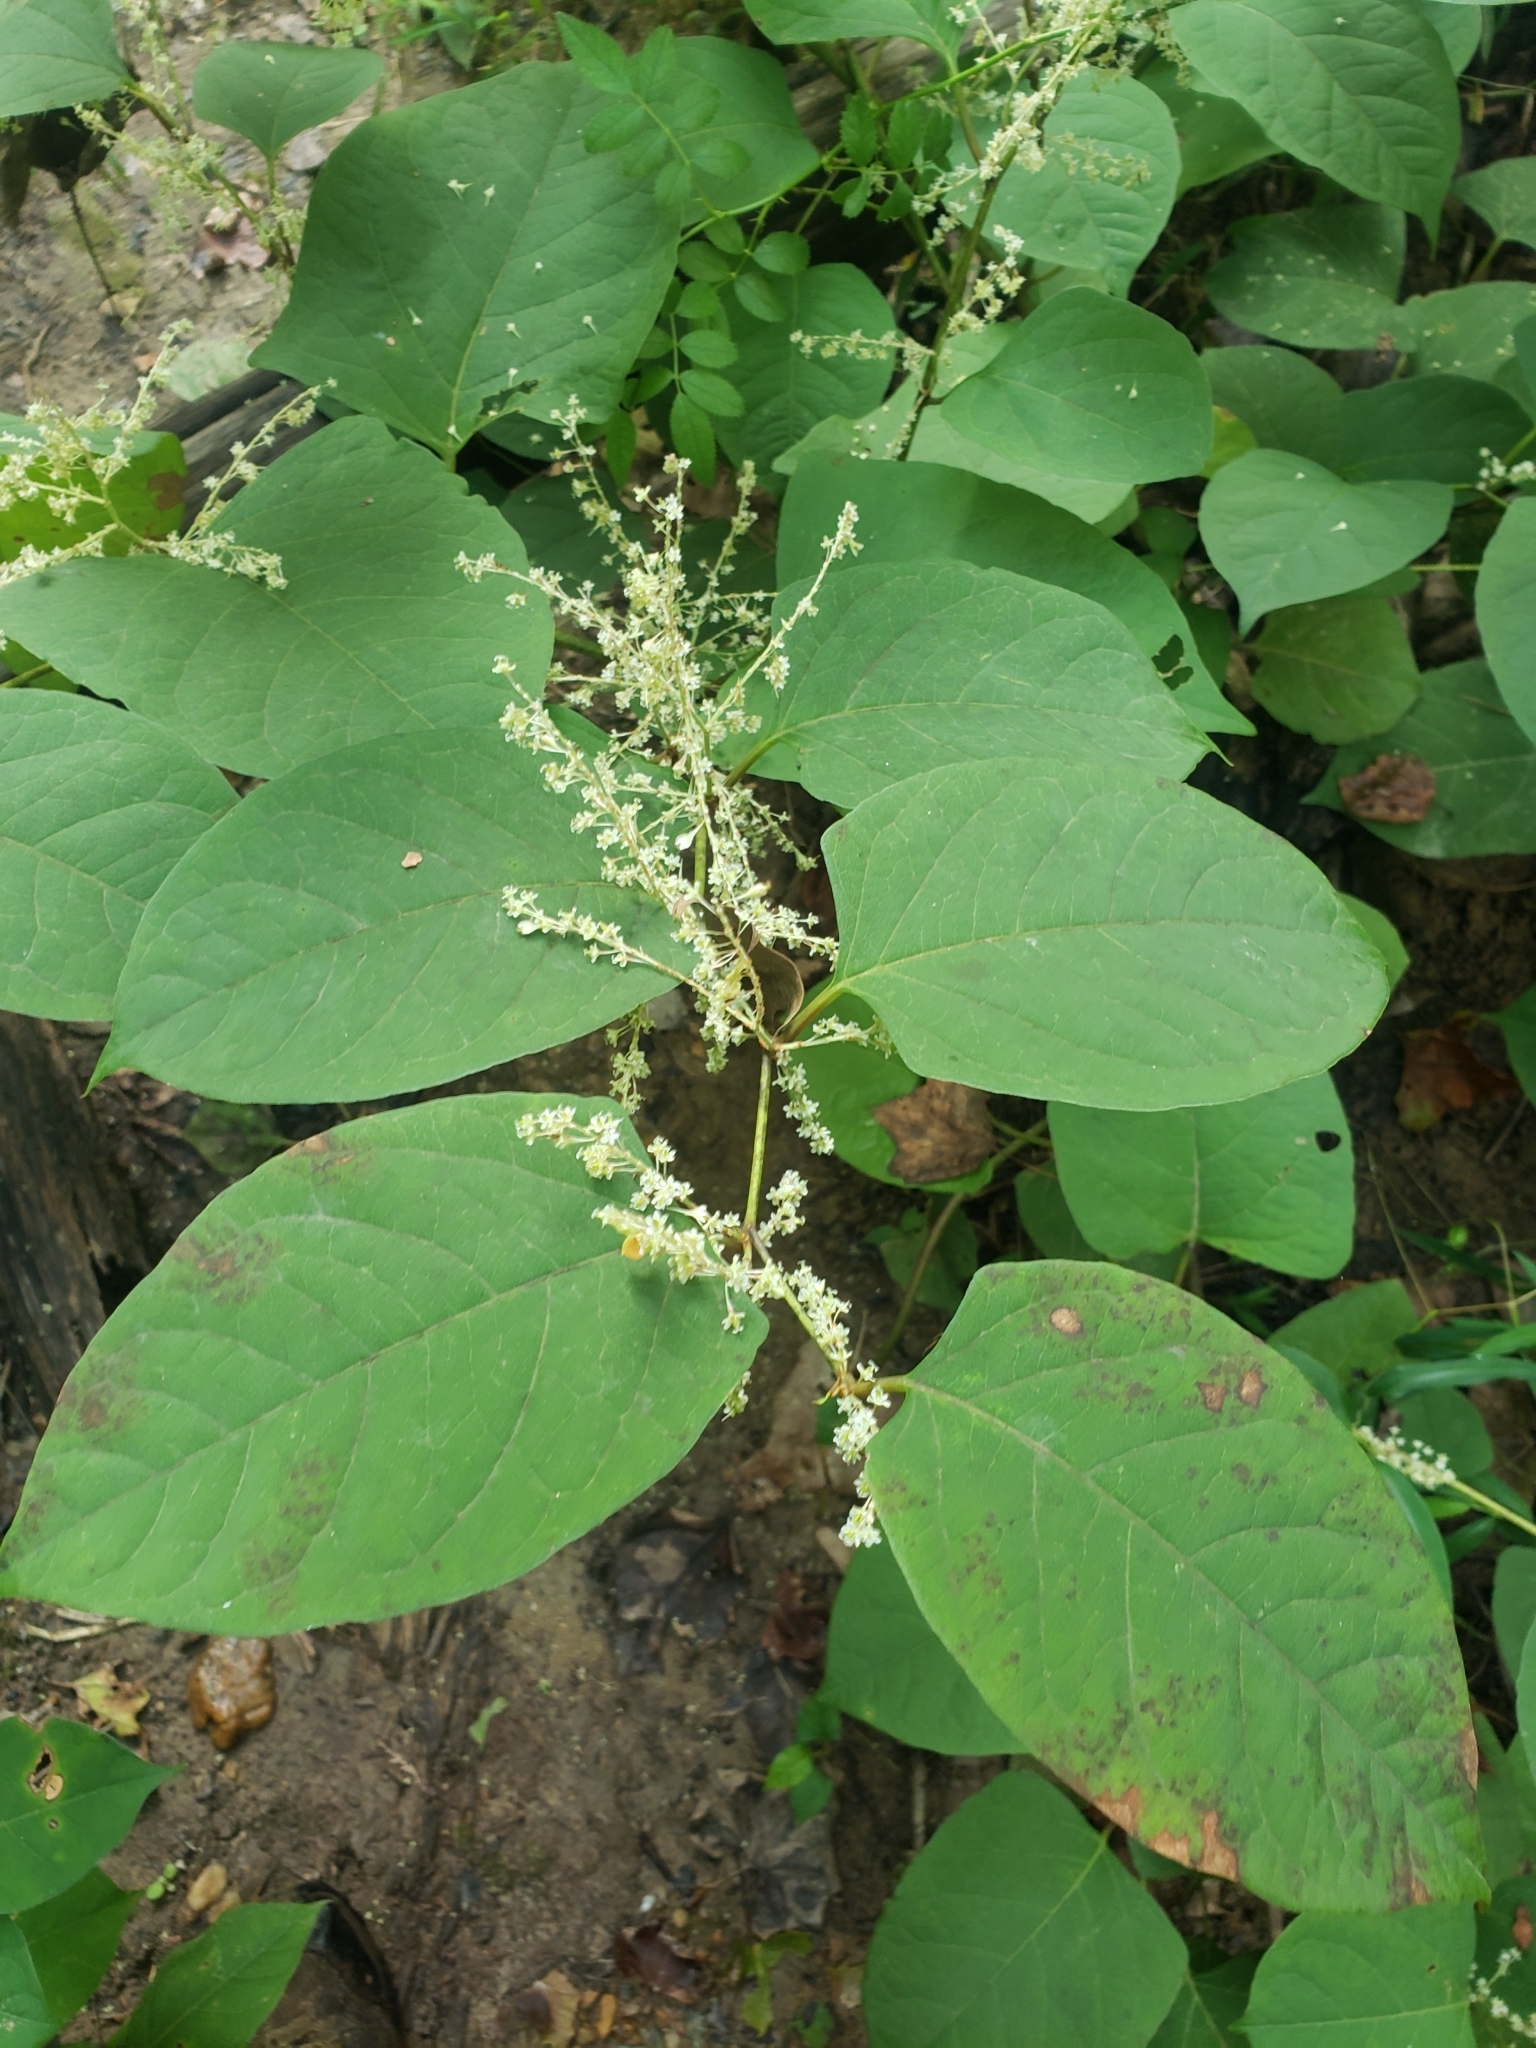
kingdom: Plantae
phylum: Tracheophyta
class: Magnoliopsida
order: Caryophyllales
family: Polygonaceae
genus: Reynoutria
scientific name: Reynoutria japonica
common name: Japanese knotweed
